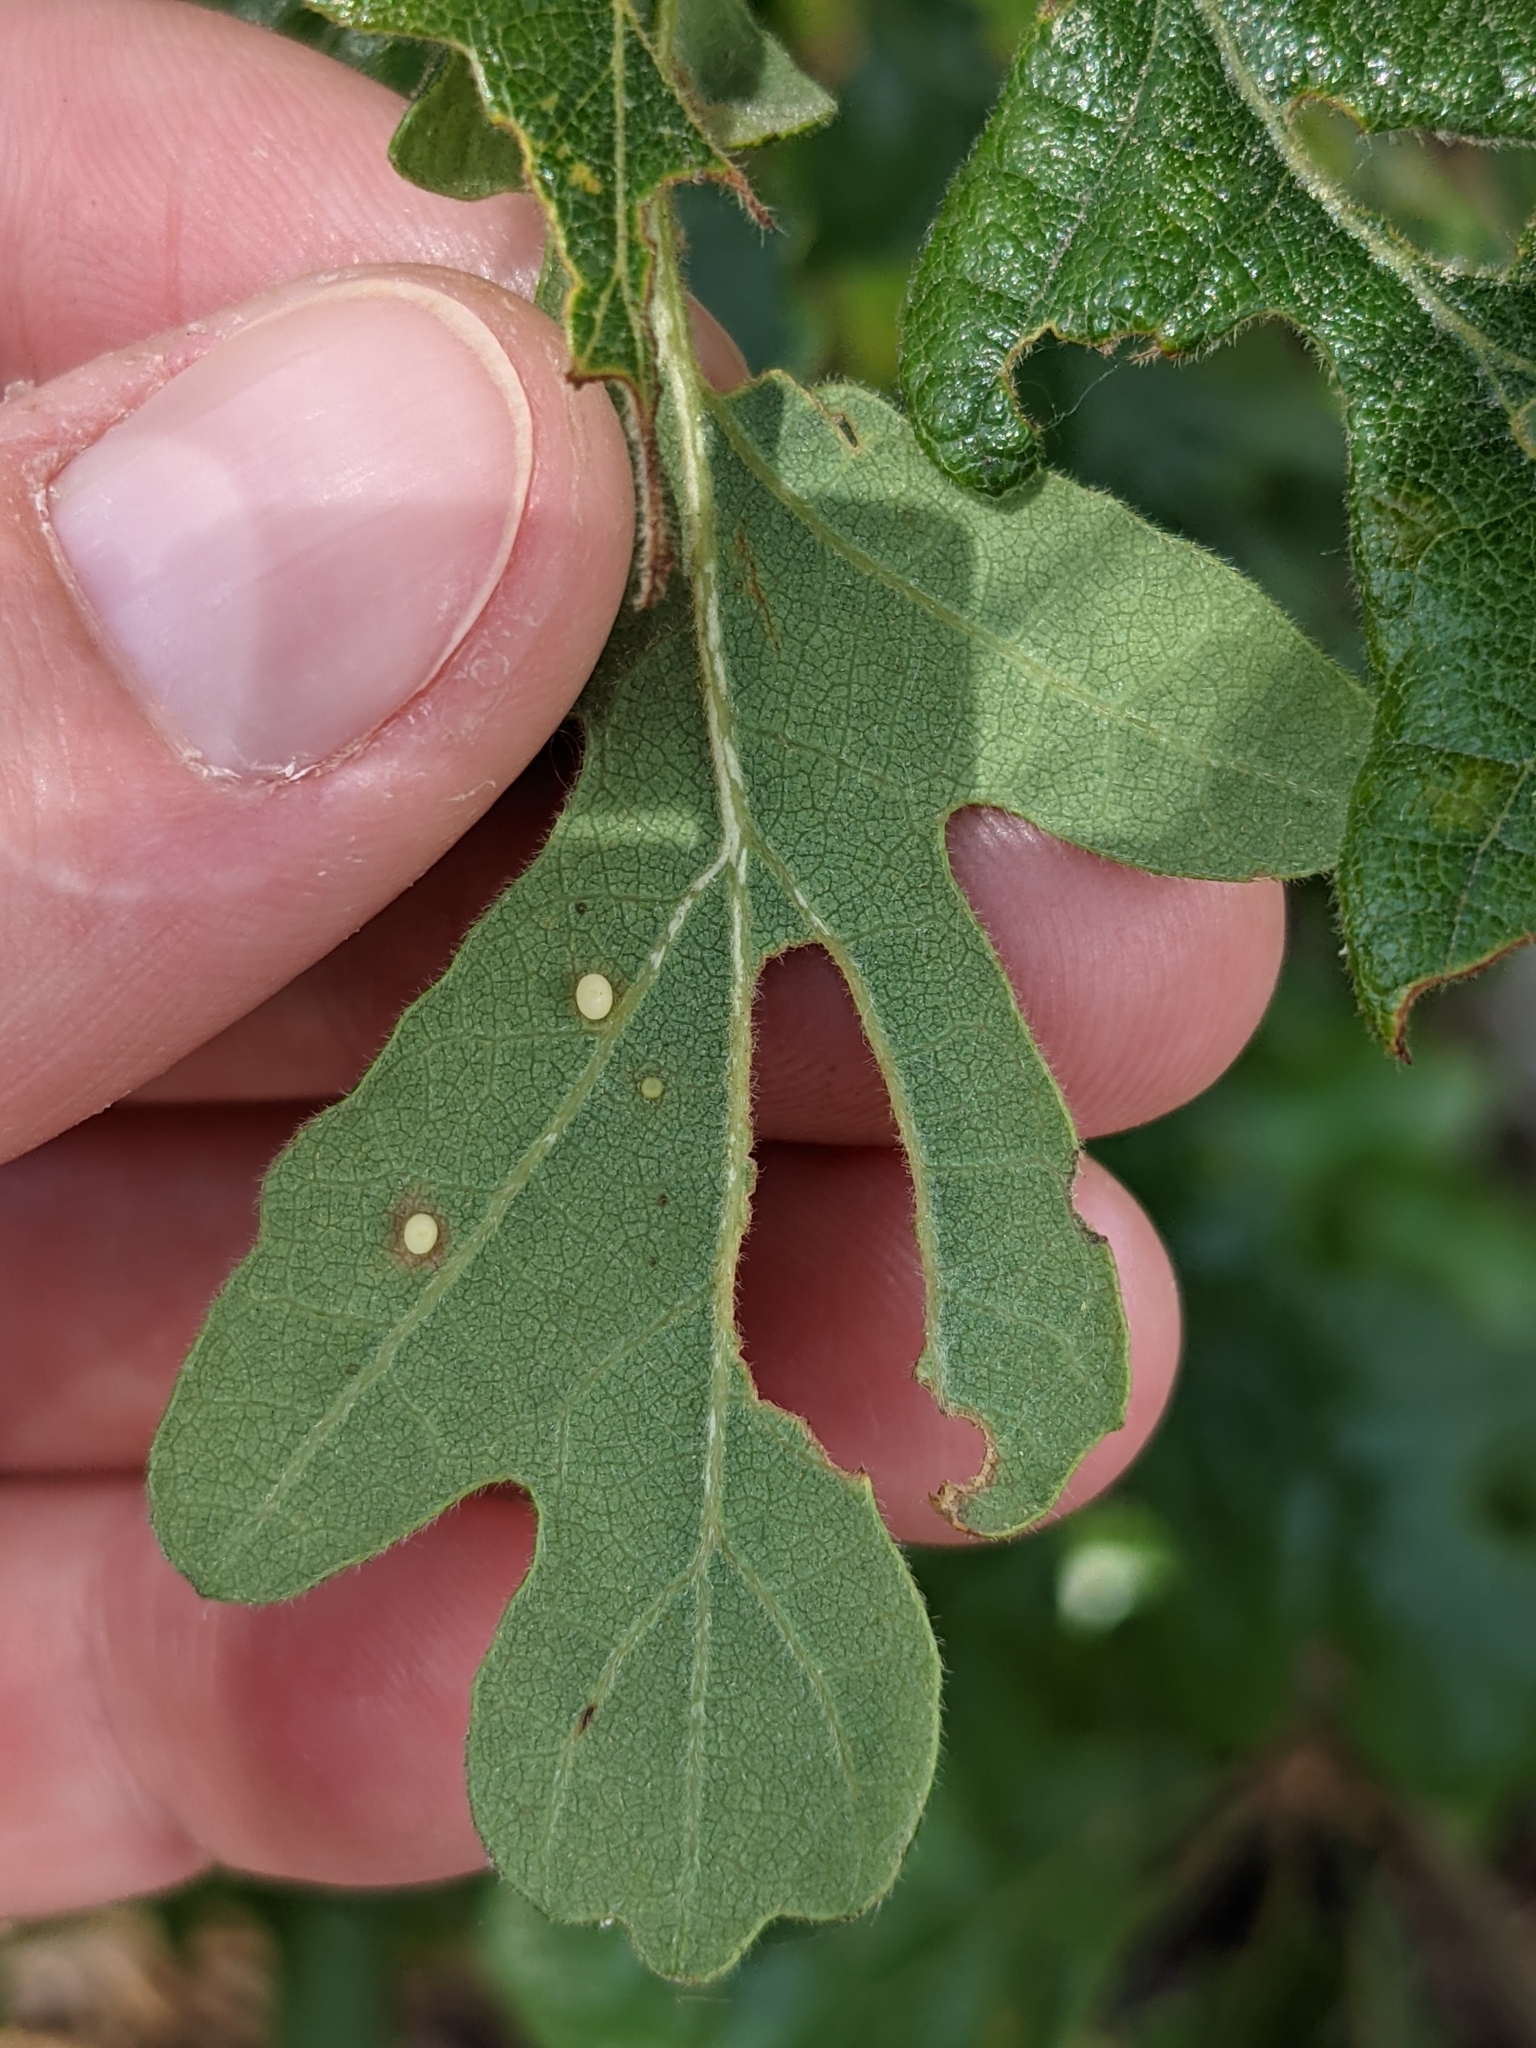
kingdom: Animalia
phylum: Arthropoda
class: Insecta
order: Hymenoptera
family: Cynipidae
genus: Neuroterus
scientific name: Neuroterus saltarius
